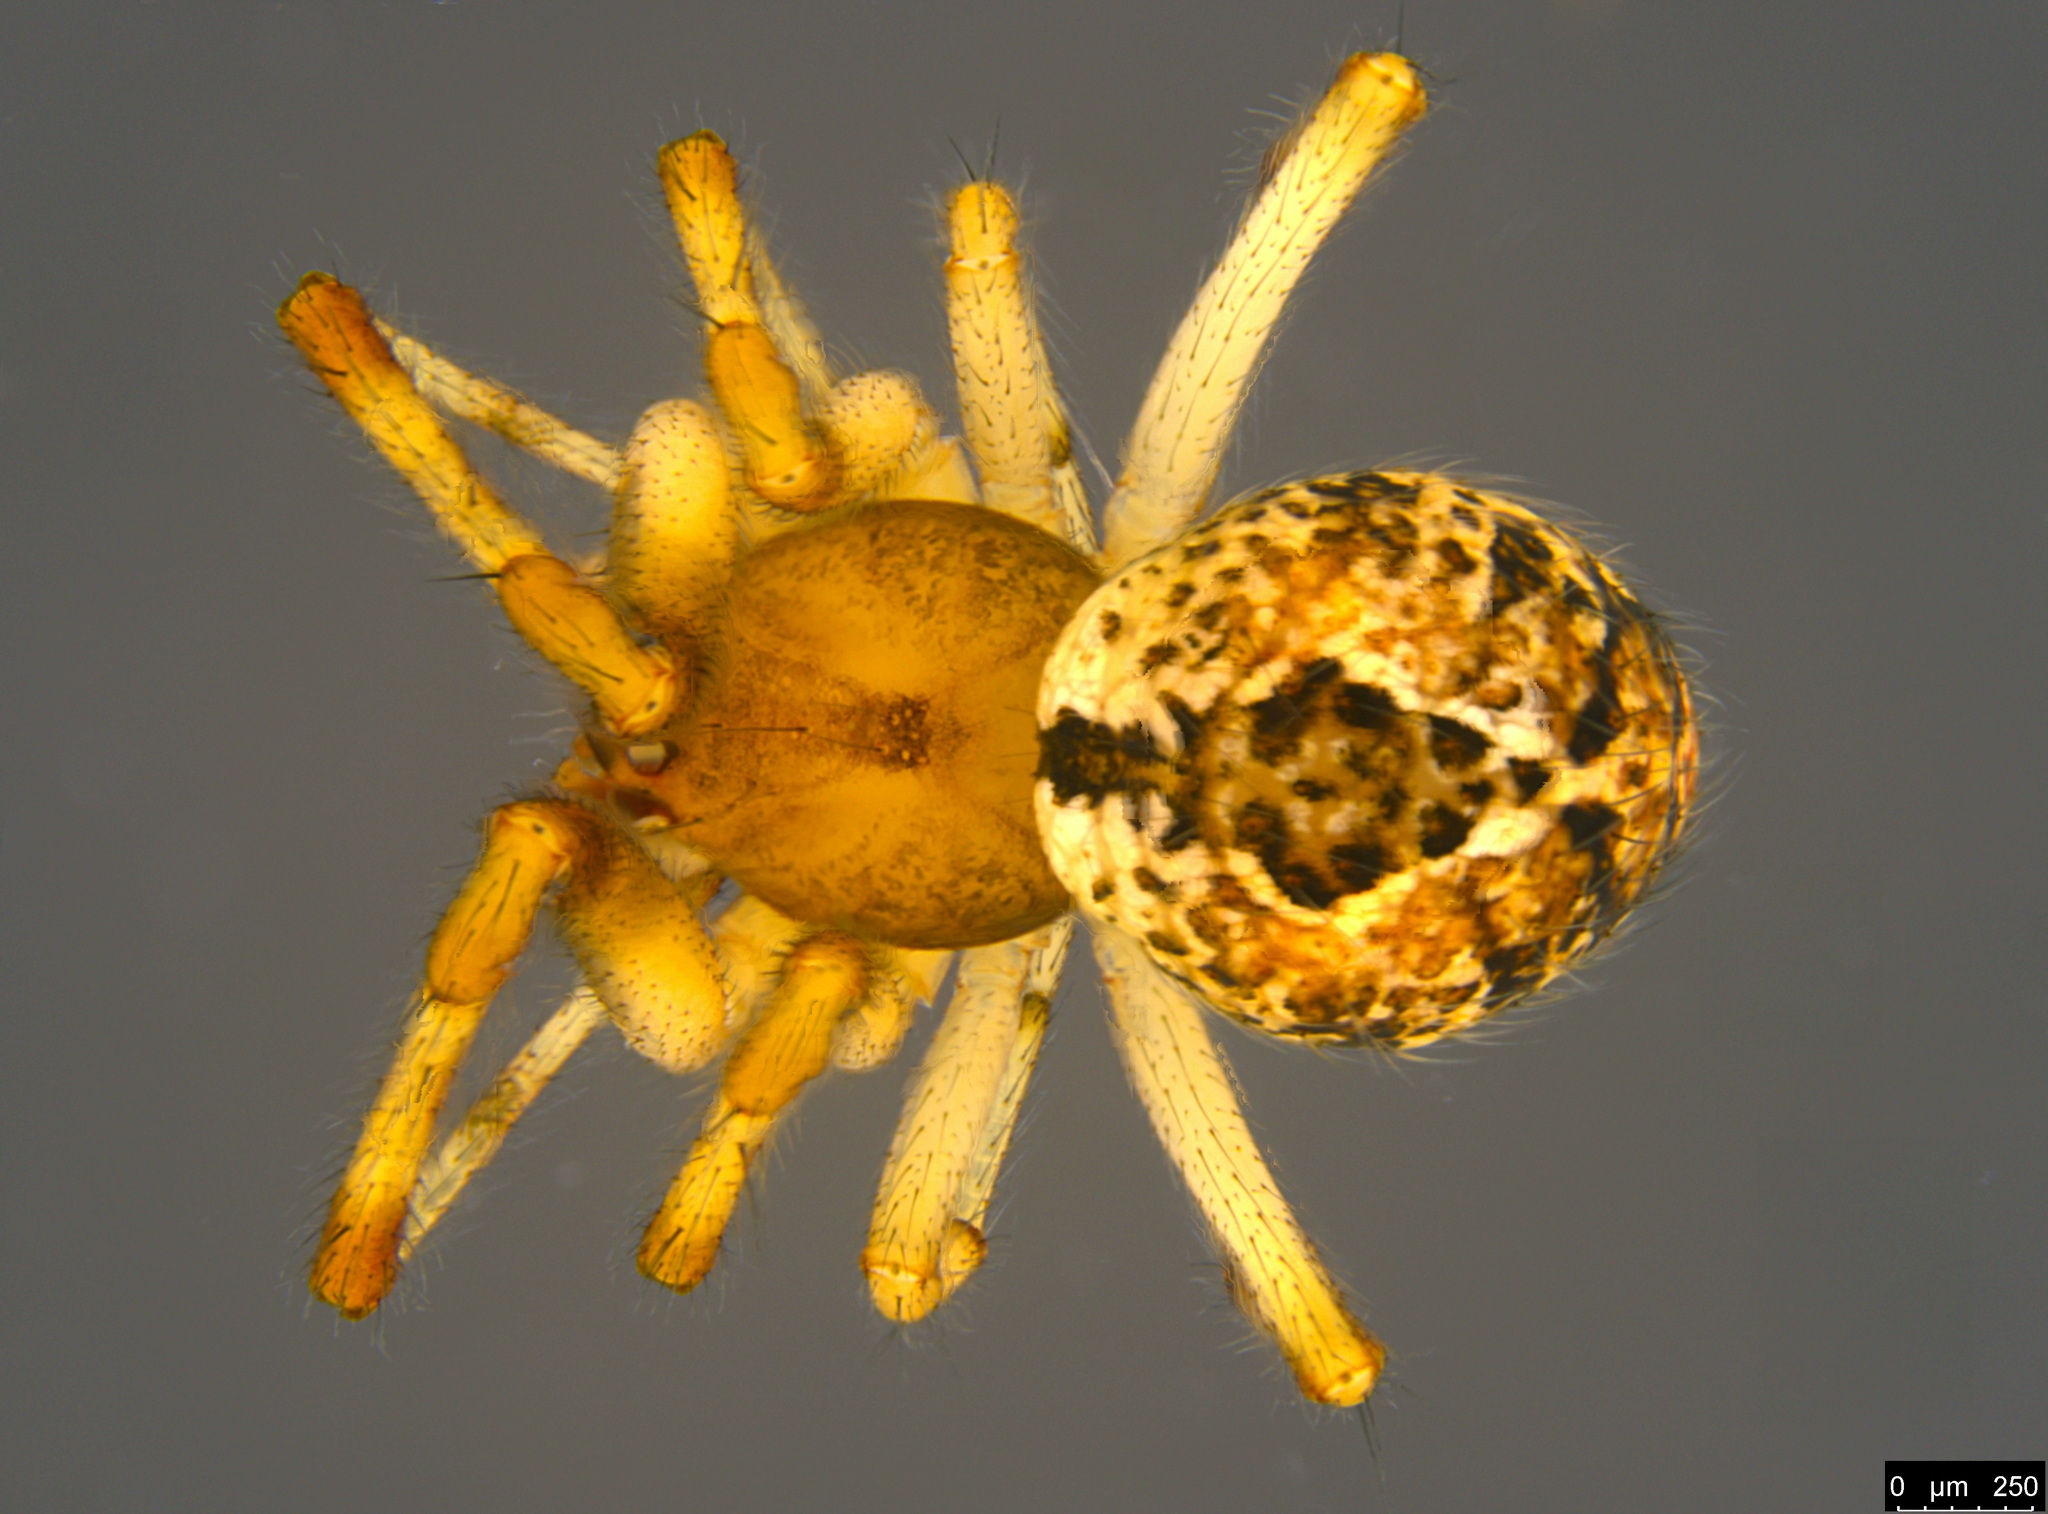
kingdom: Animalia
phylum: Arthropoda
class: Arachnida
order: Araneae
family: Theridiidae
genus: Cryptachaea
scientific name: Cryptachaea veruculata
